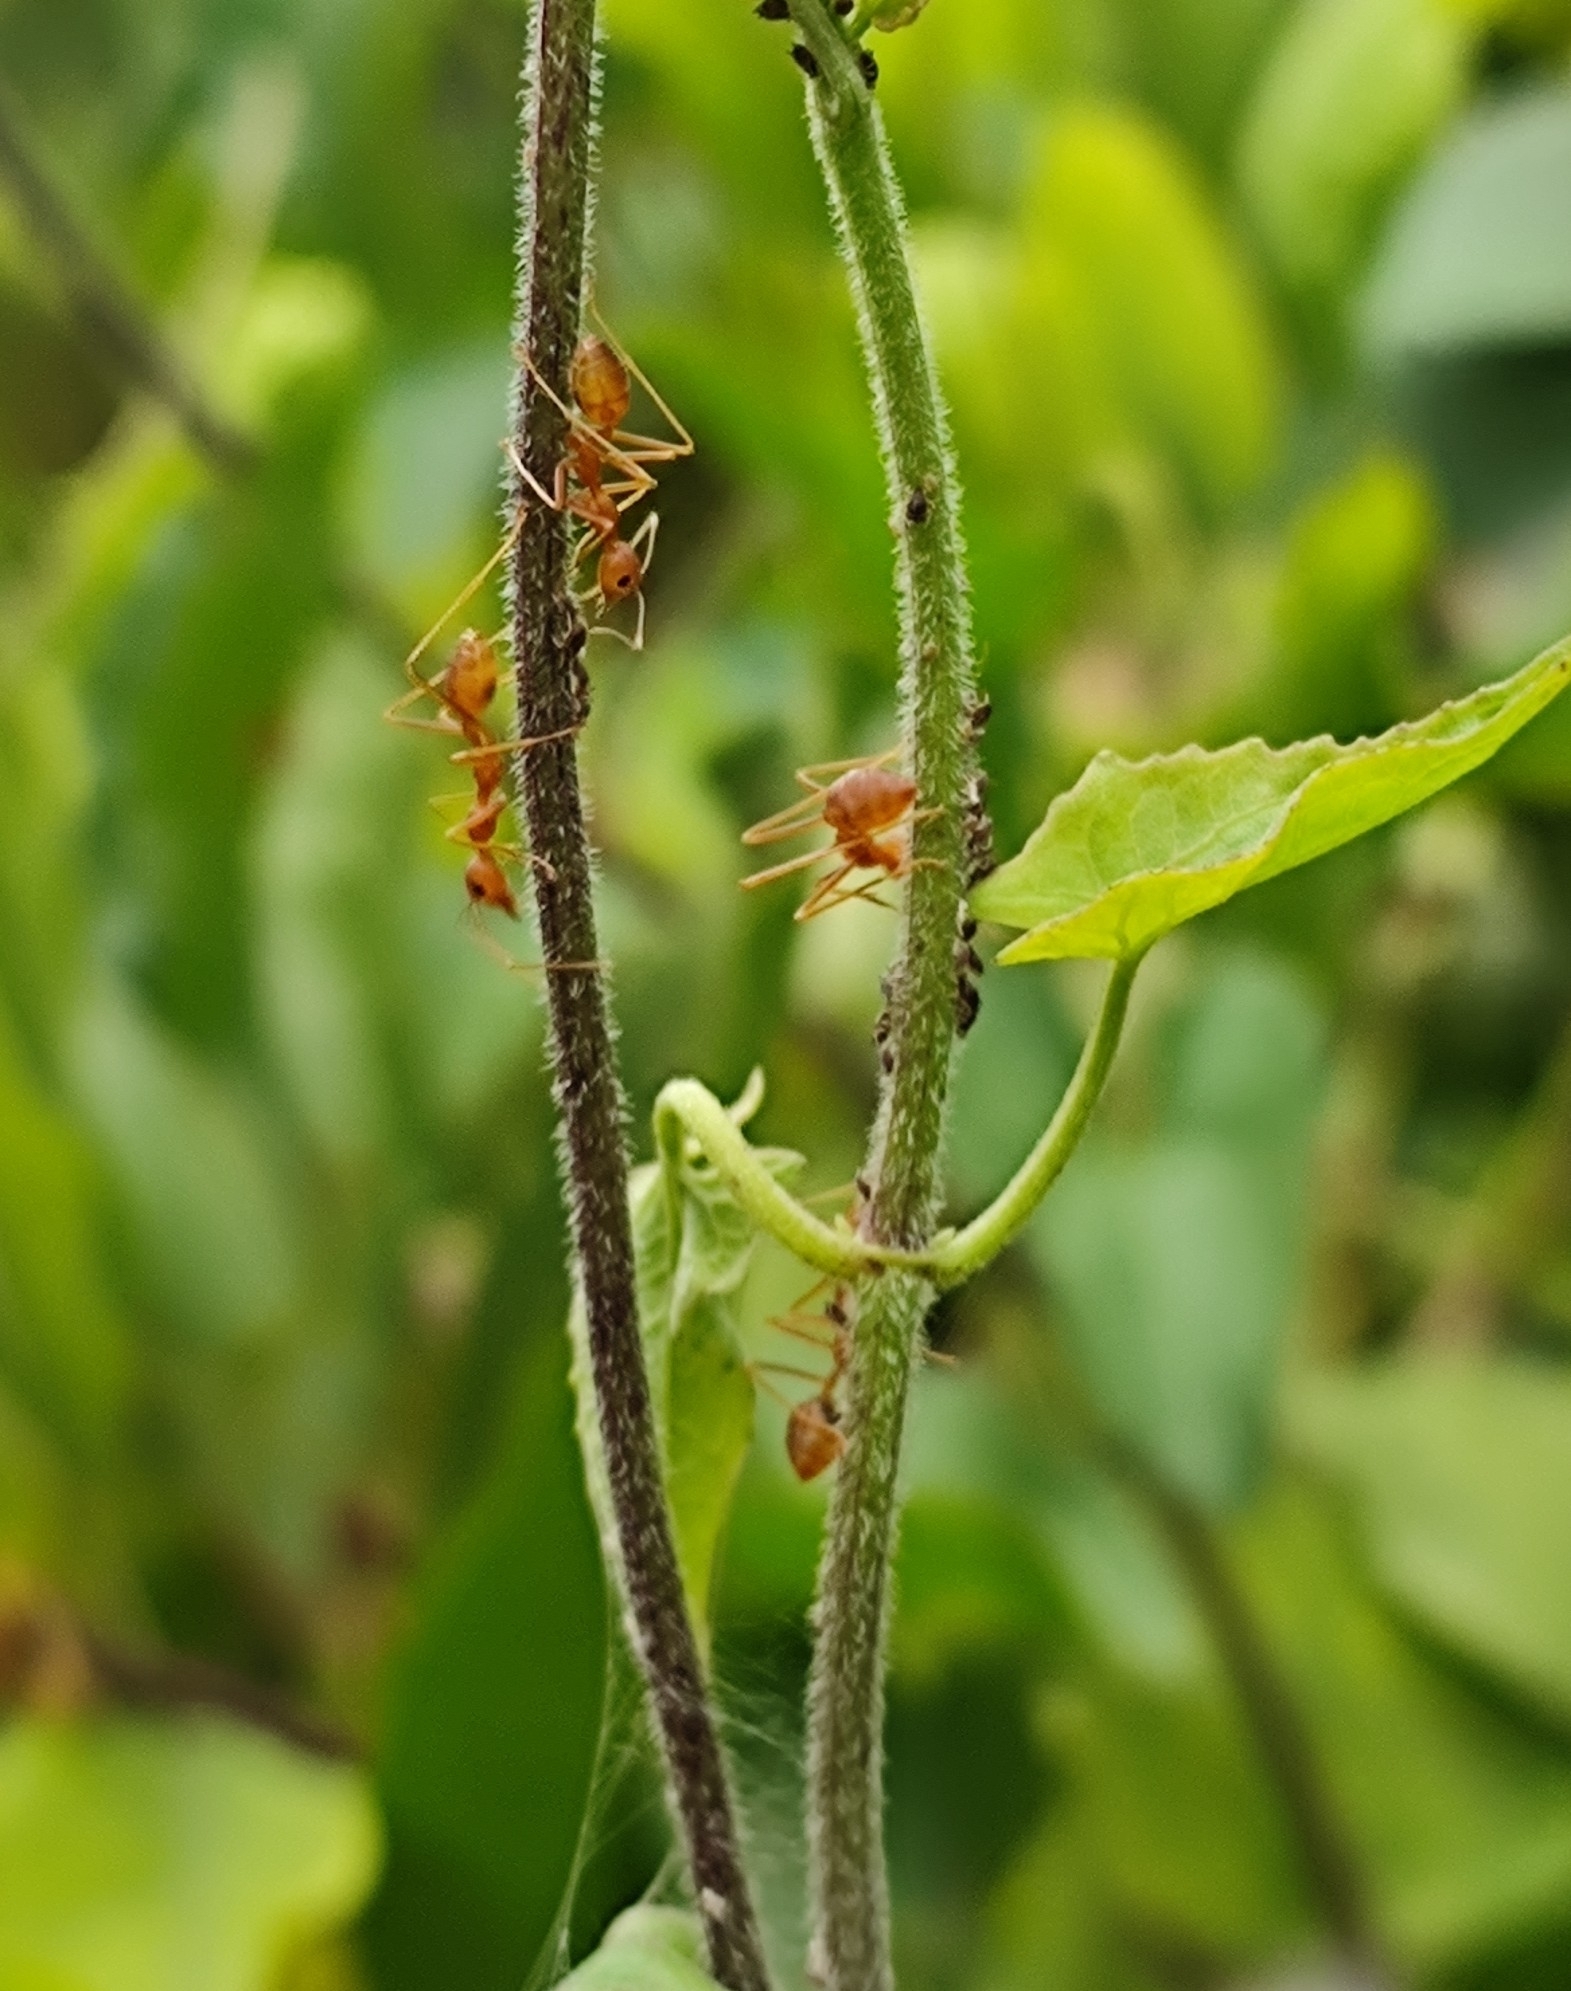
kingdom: Animalia
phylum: Arthropoda
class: Insecta
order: Hymenoptera
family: Formicidae
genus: Oecophylla
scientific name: Oecophylla smaragdina
